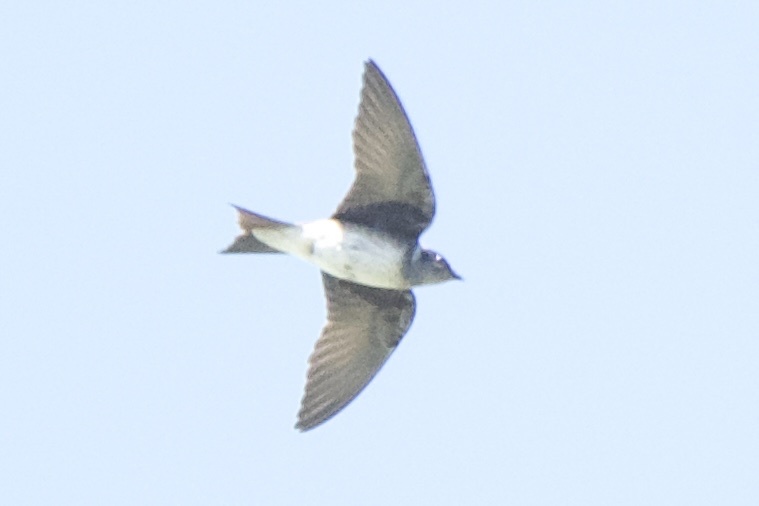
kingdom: Animalia
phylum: Chordata
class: Aves
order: Passeriformes
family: Hirundinidae
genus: Progne
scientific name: Progne subis
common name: Purple martin
